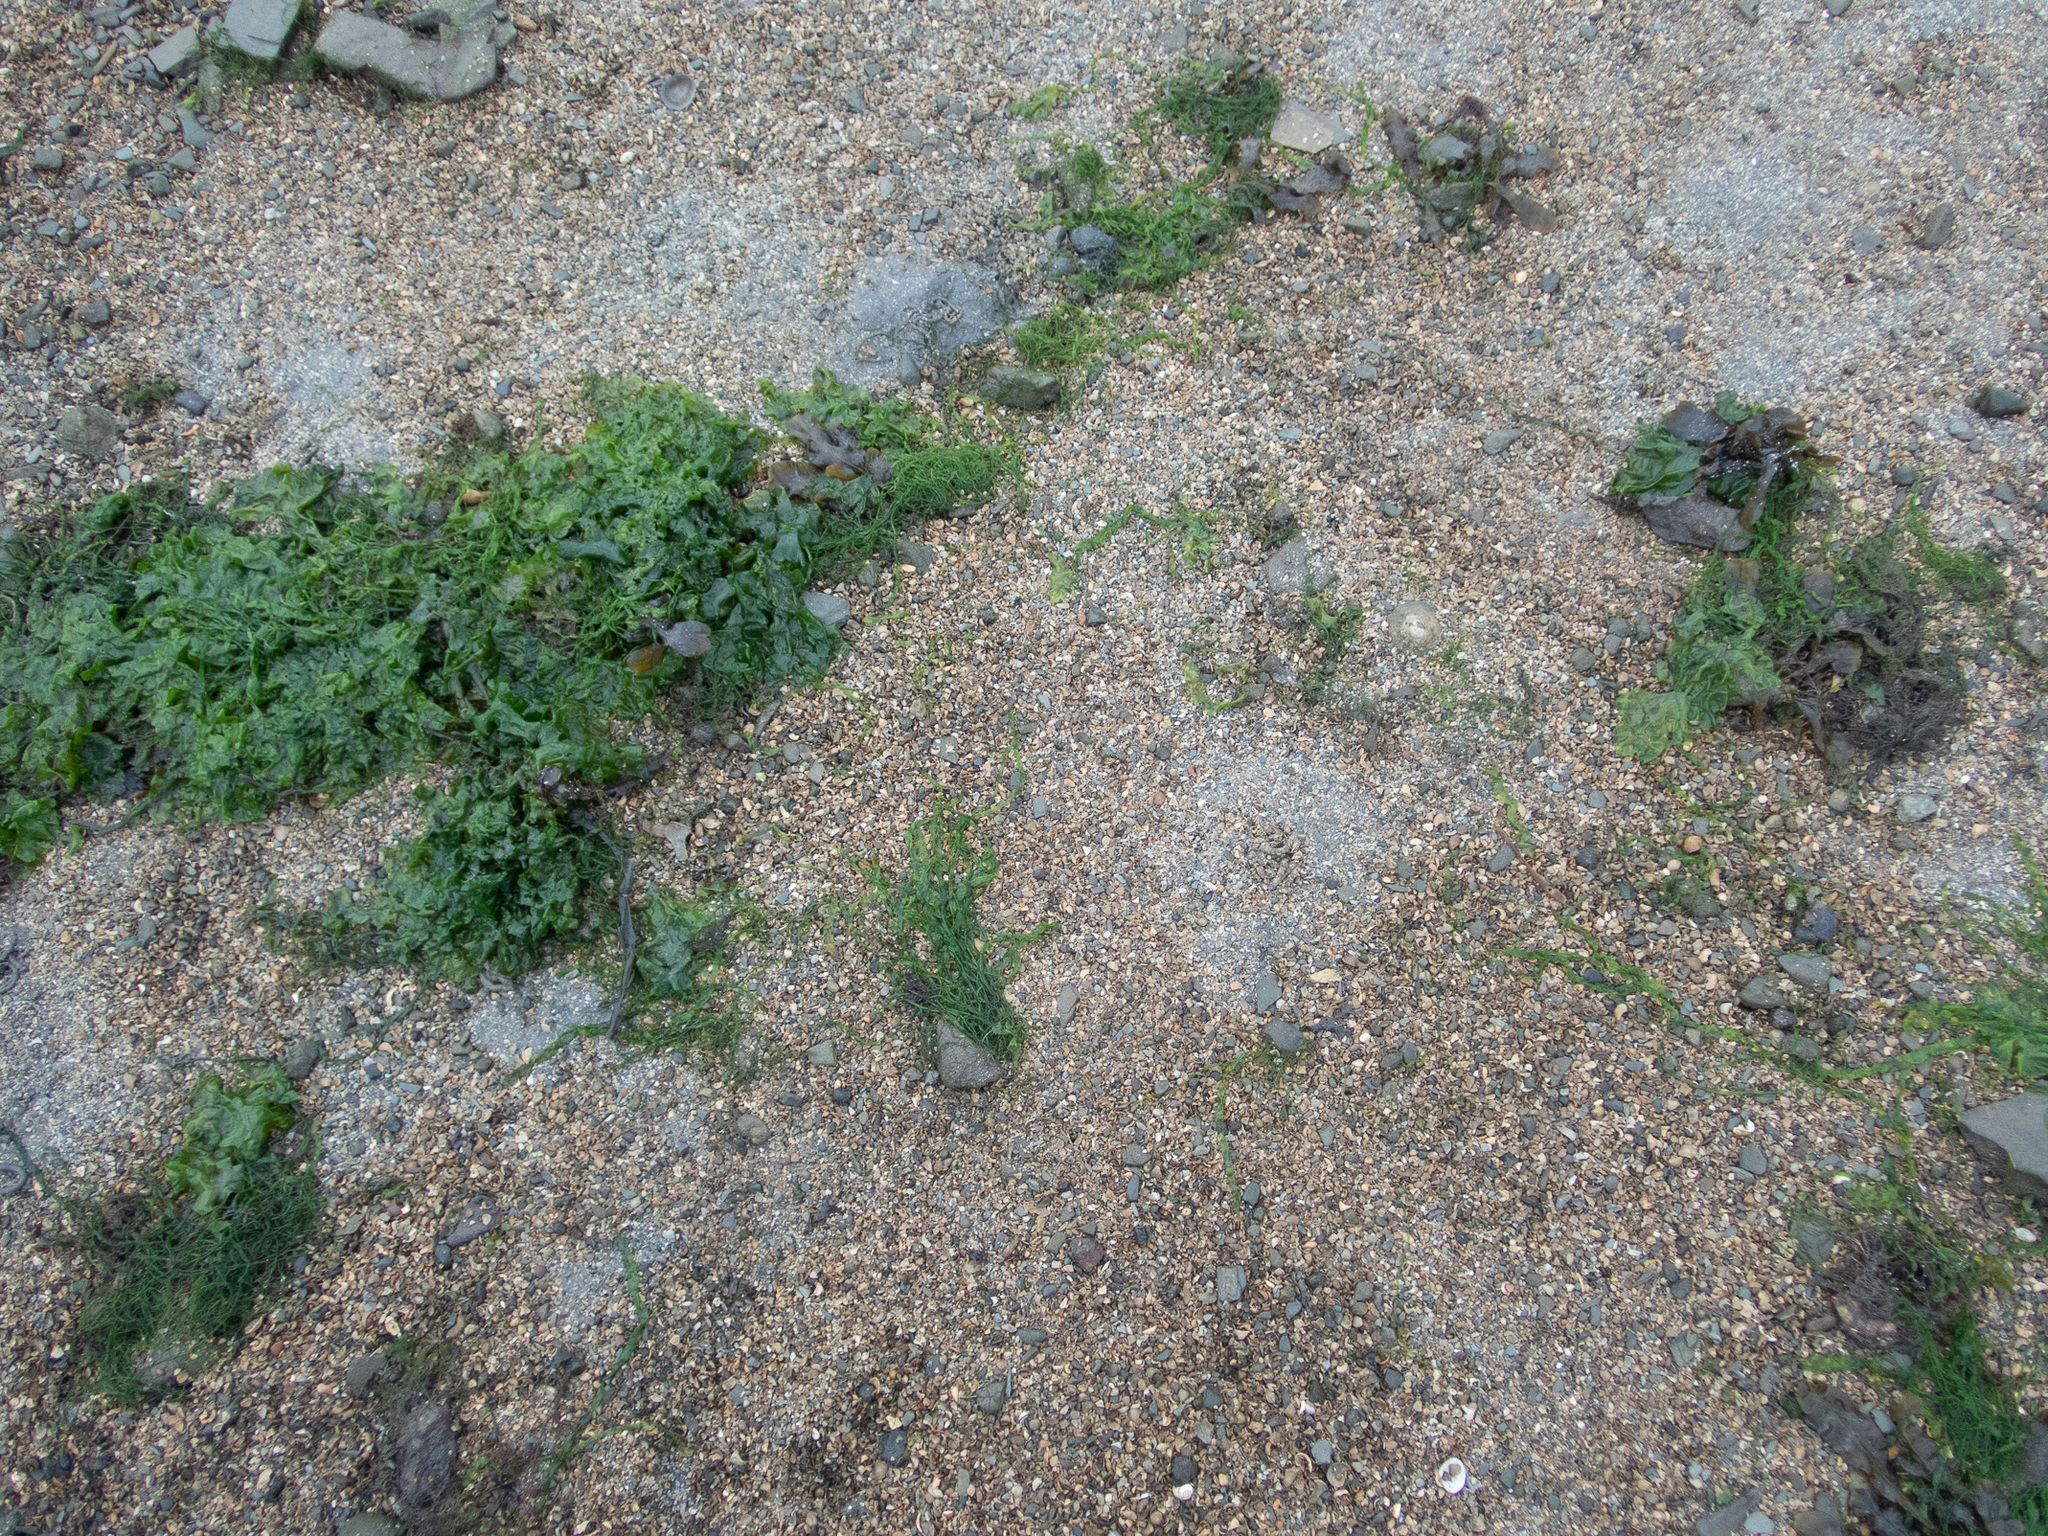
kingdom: Plantae
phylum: Chlorophyta
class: Ulvophyceae
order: Ulvales
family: Ulvaceae
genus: Ulva
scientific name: Ulva intestinalis
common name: Gut weed
